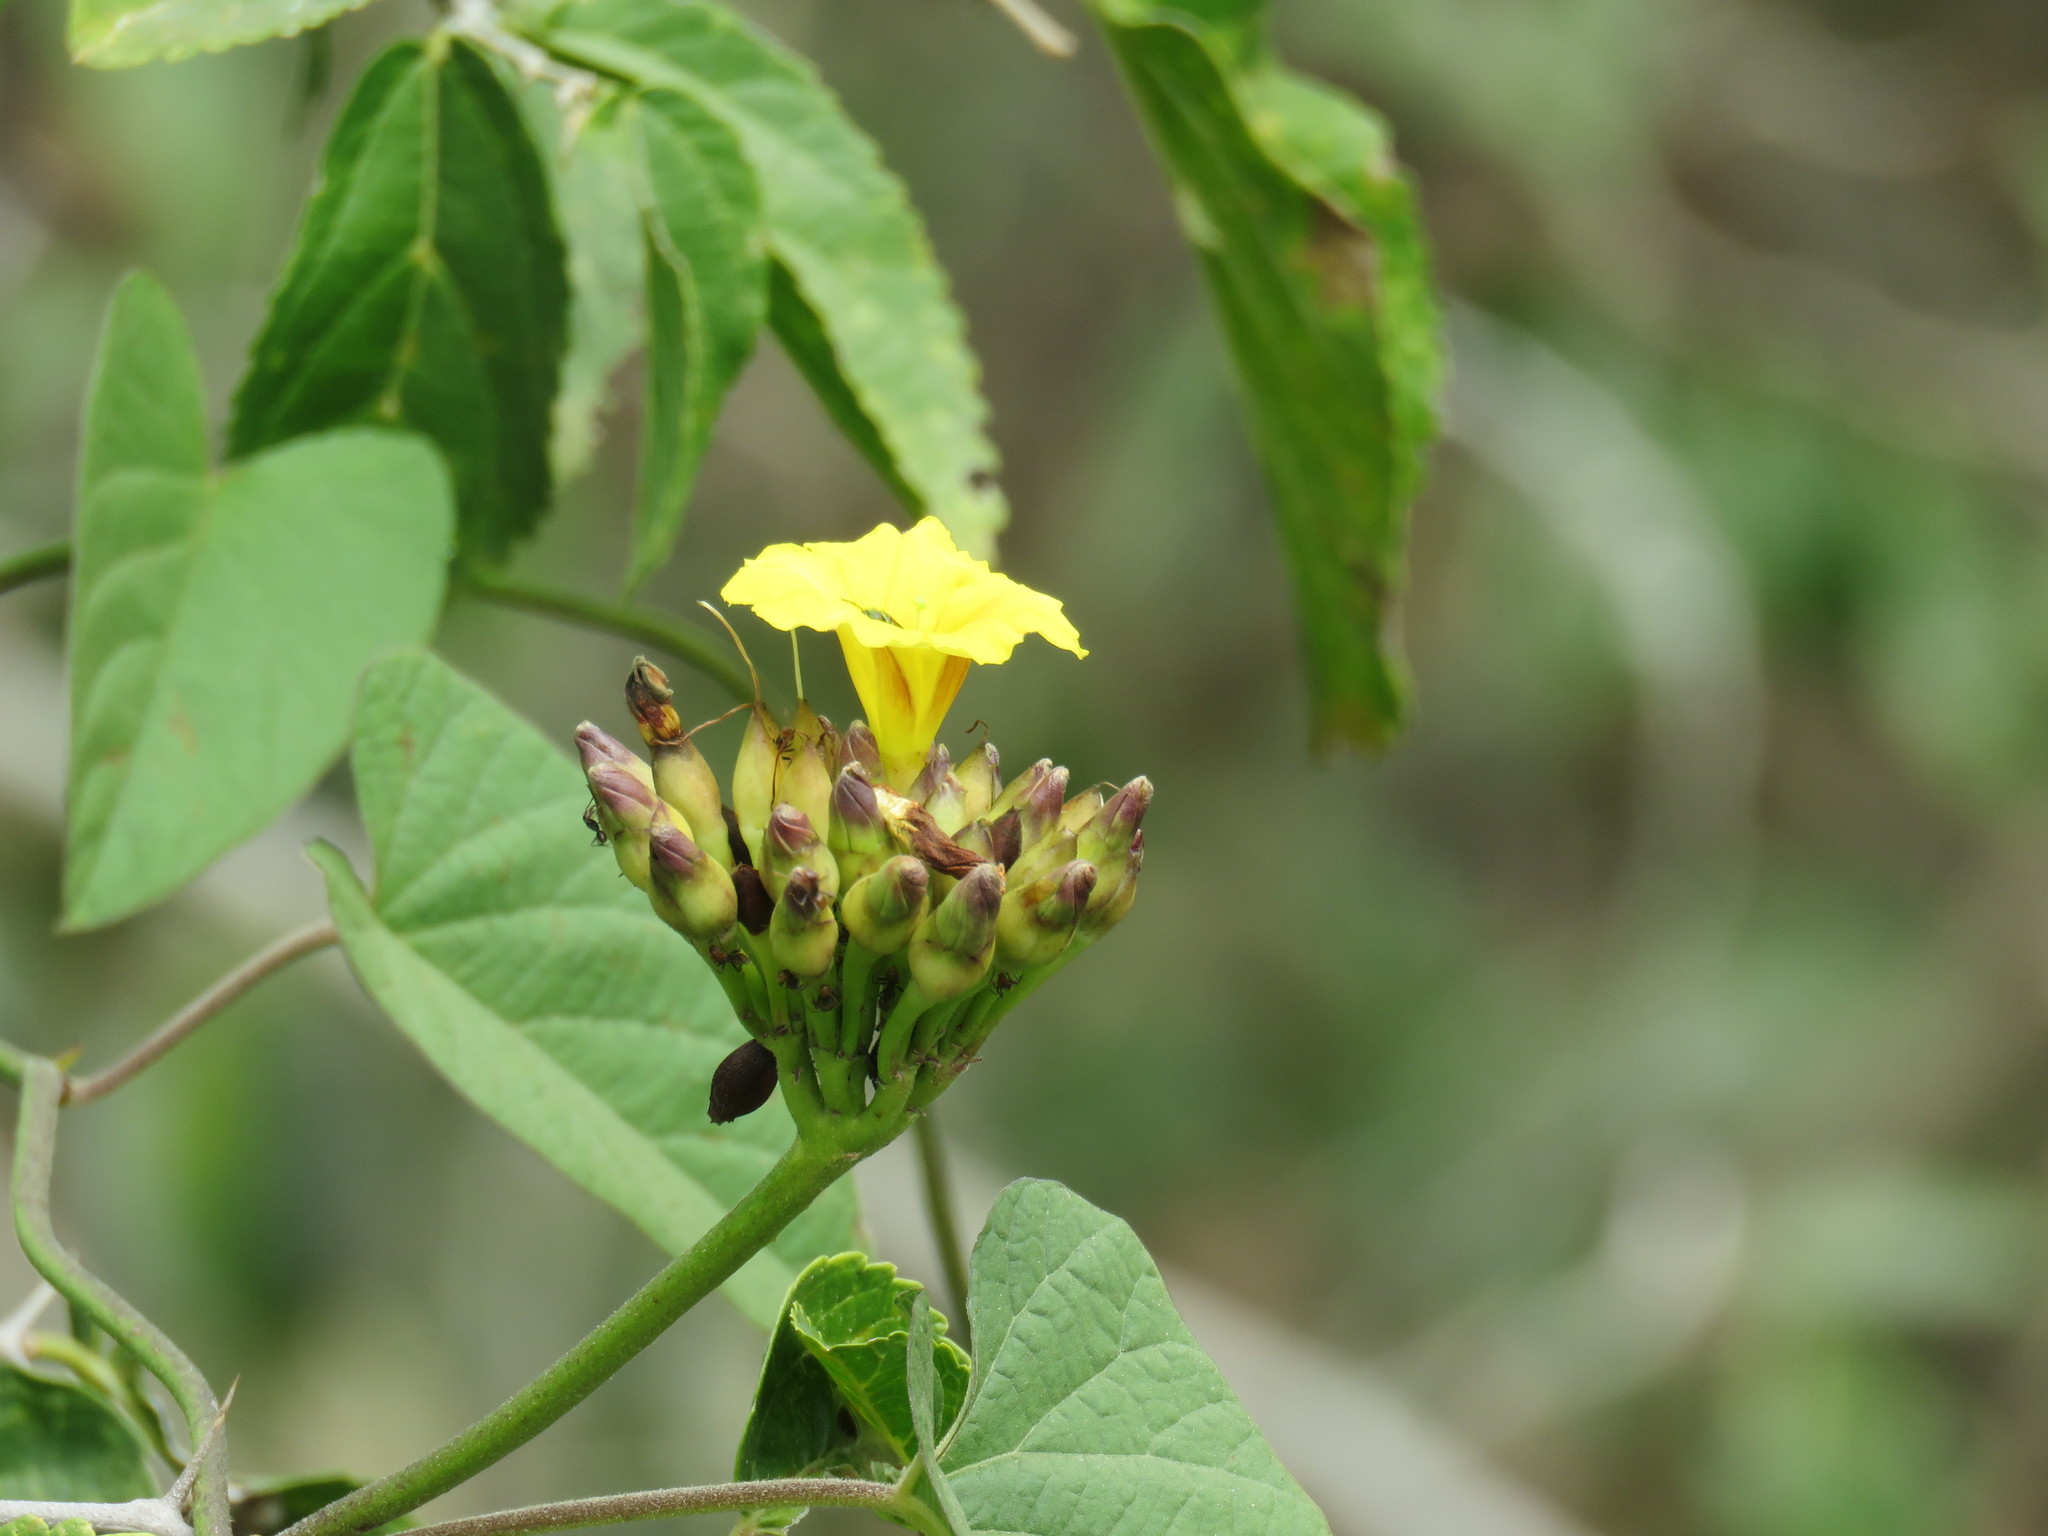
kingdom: Plantae
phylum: Tracheophyta
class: Magnoliopsida
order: Solanales
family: Convolvulaceae
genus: Camonea
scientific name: Camonea umbellata
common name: Hogvine
